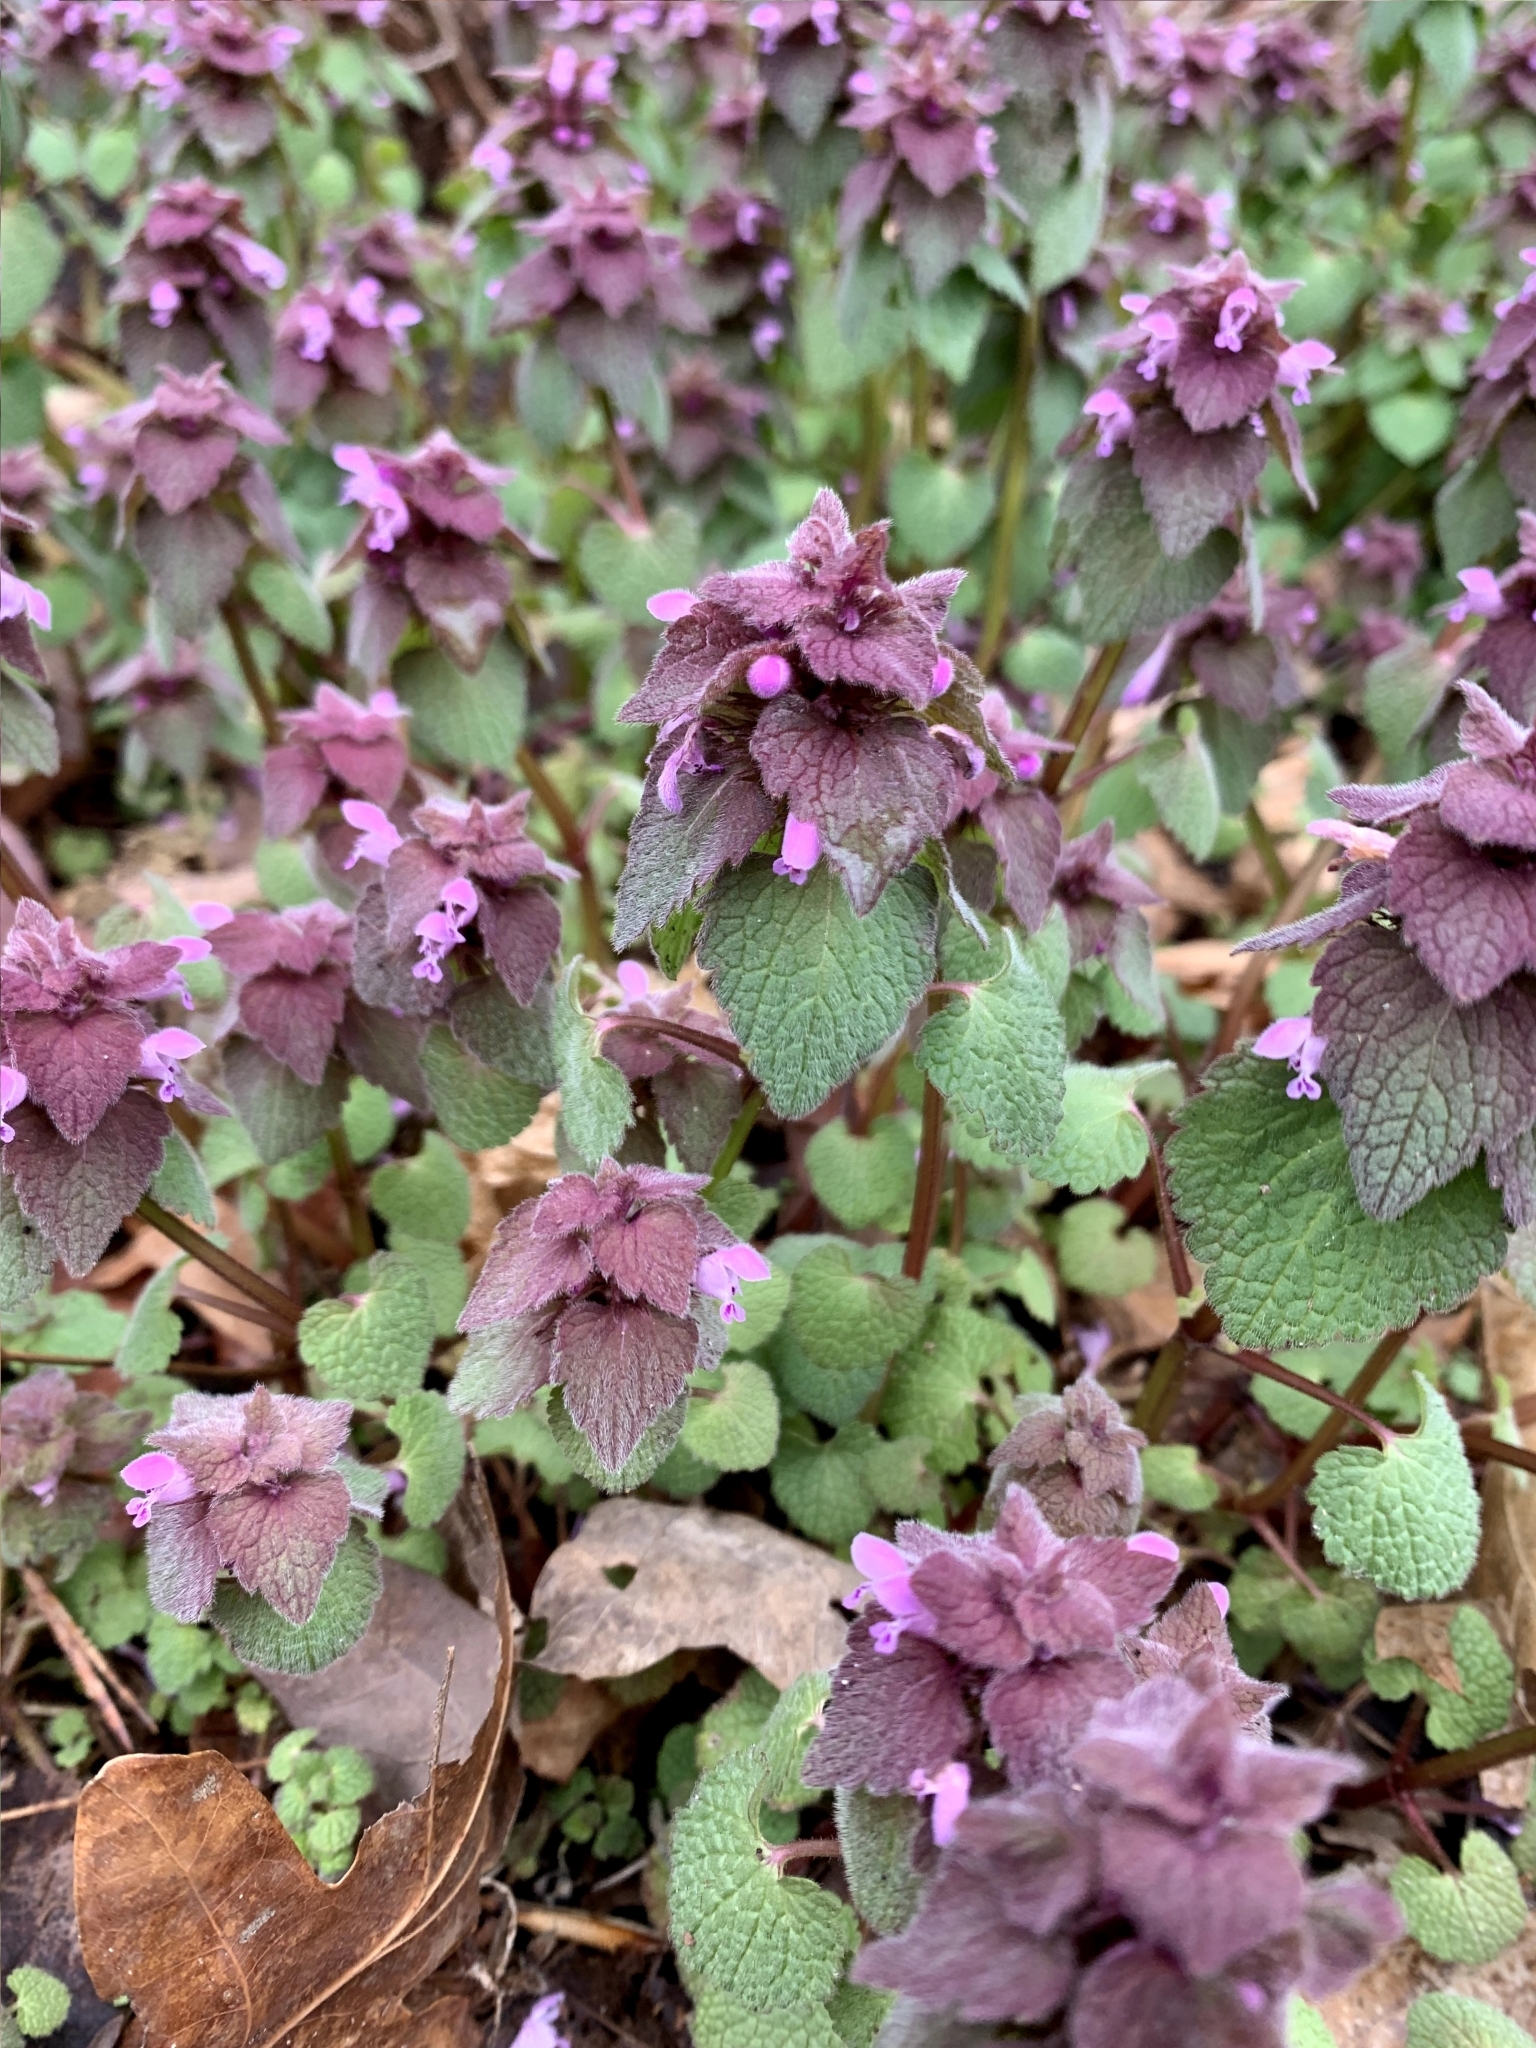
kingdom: Plantae
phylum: Tracheophyta
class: Magnoliopsida
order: Lamiales
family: Lamiaceae
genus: Lamium
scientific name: Lamium purpureum
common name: Red dead-nettle
